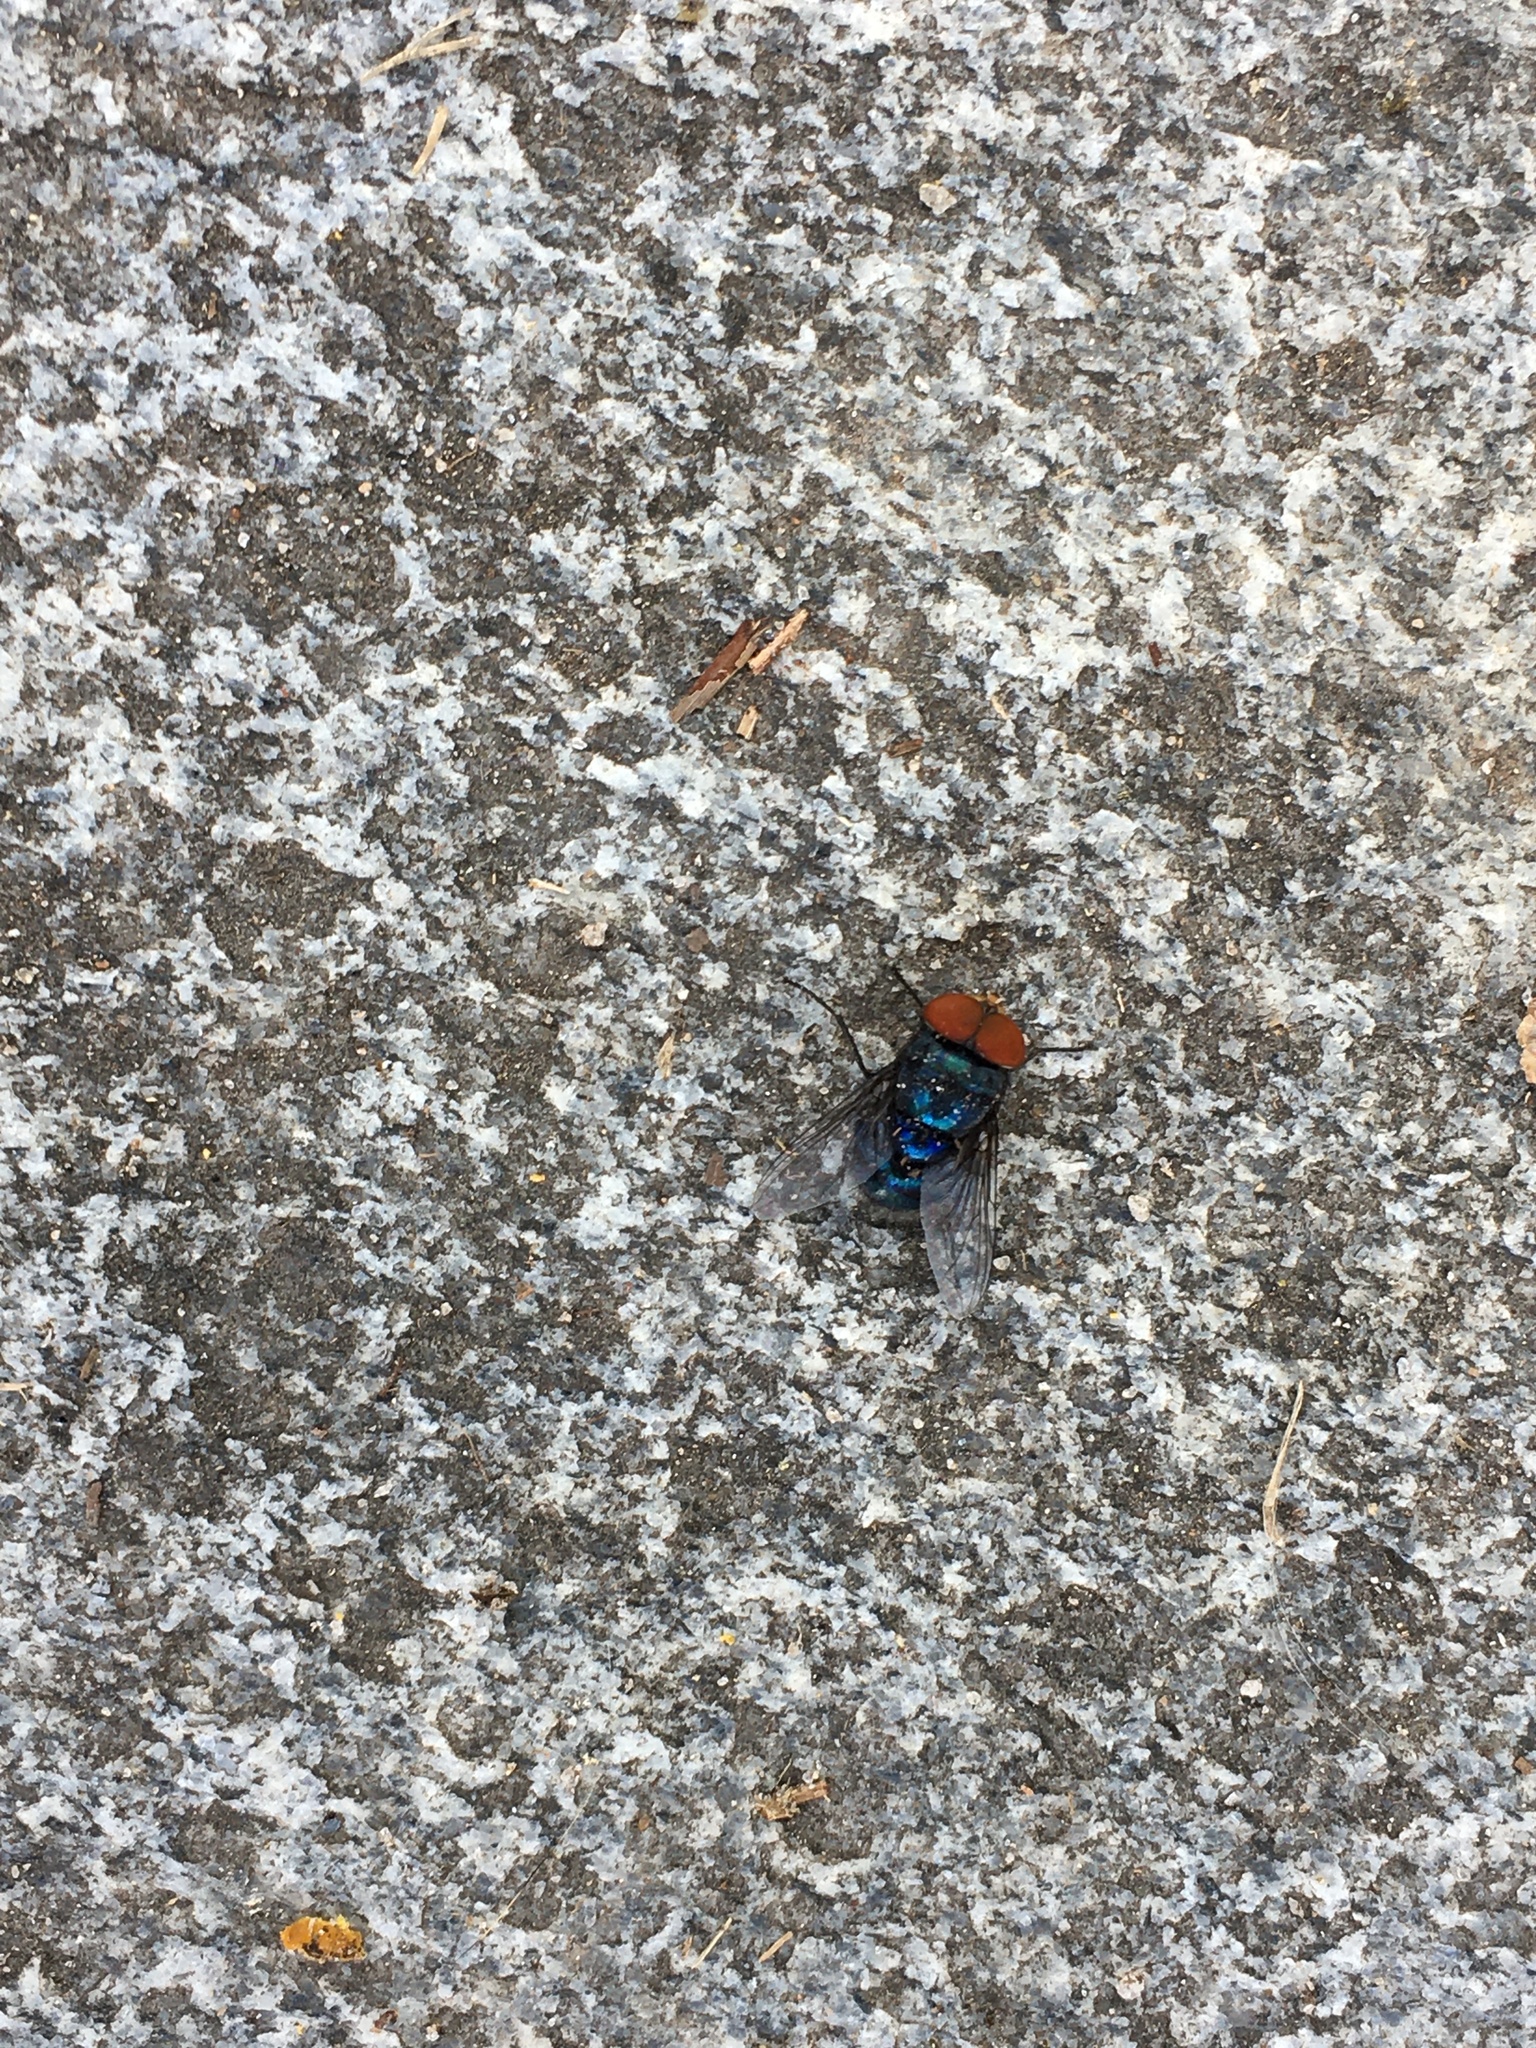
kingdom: Animalia
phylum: Arthropoda
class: Insecta
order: Diptera
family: Calliphoridae
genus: Chrysomya
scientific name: Chrysomya megacephala
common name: Blow fly
